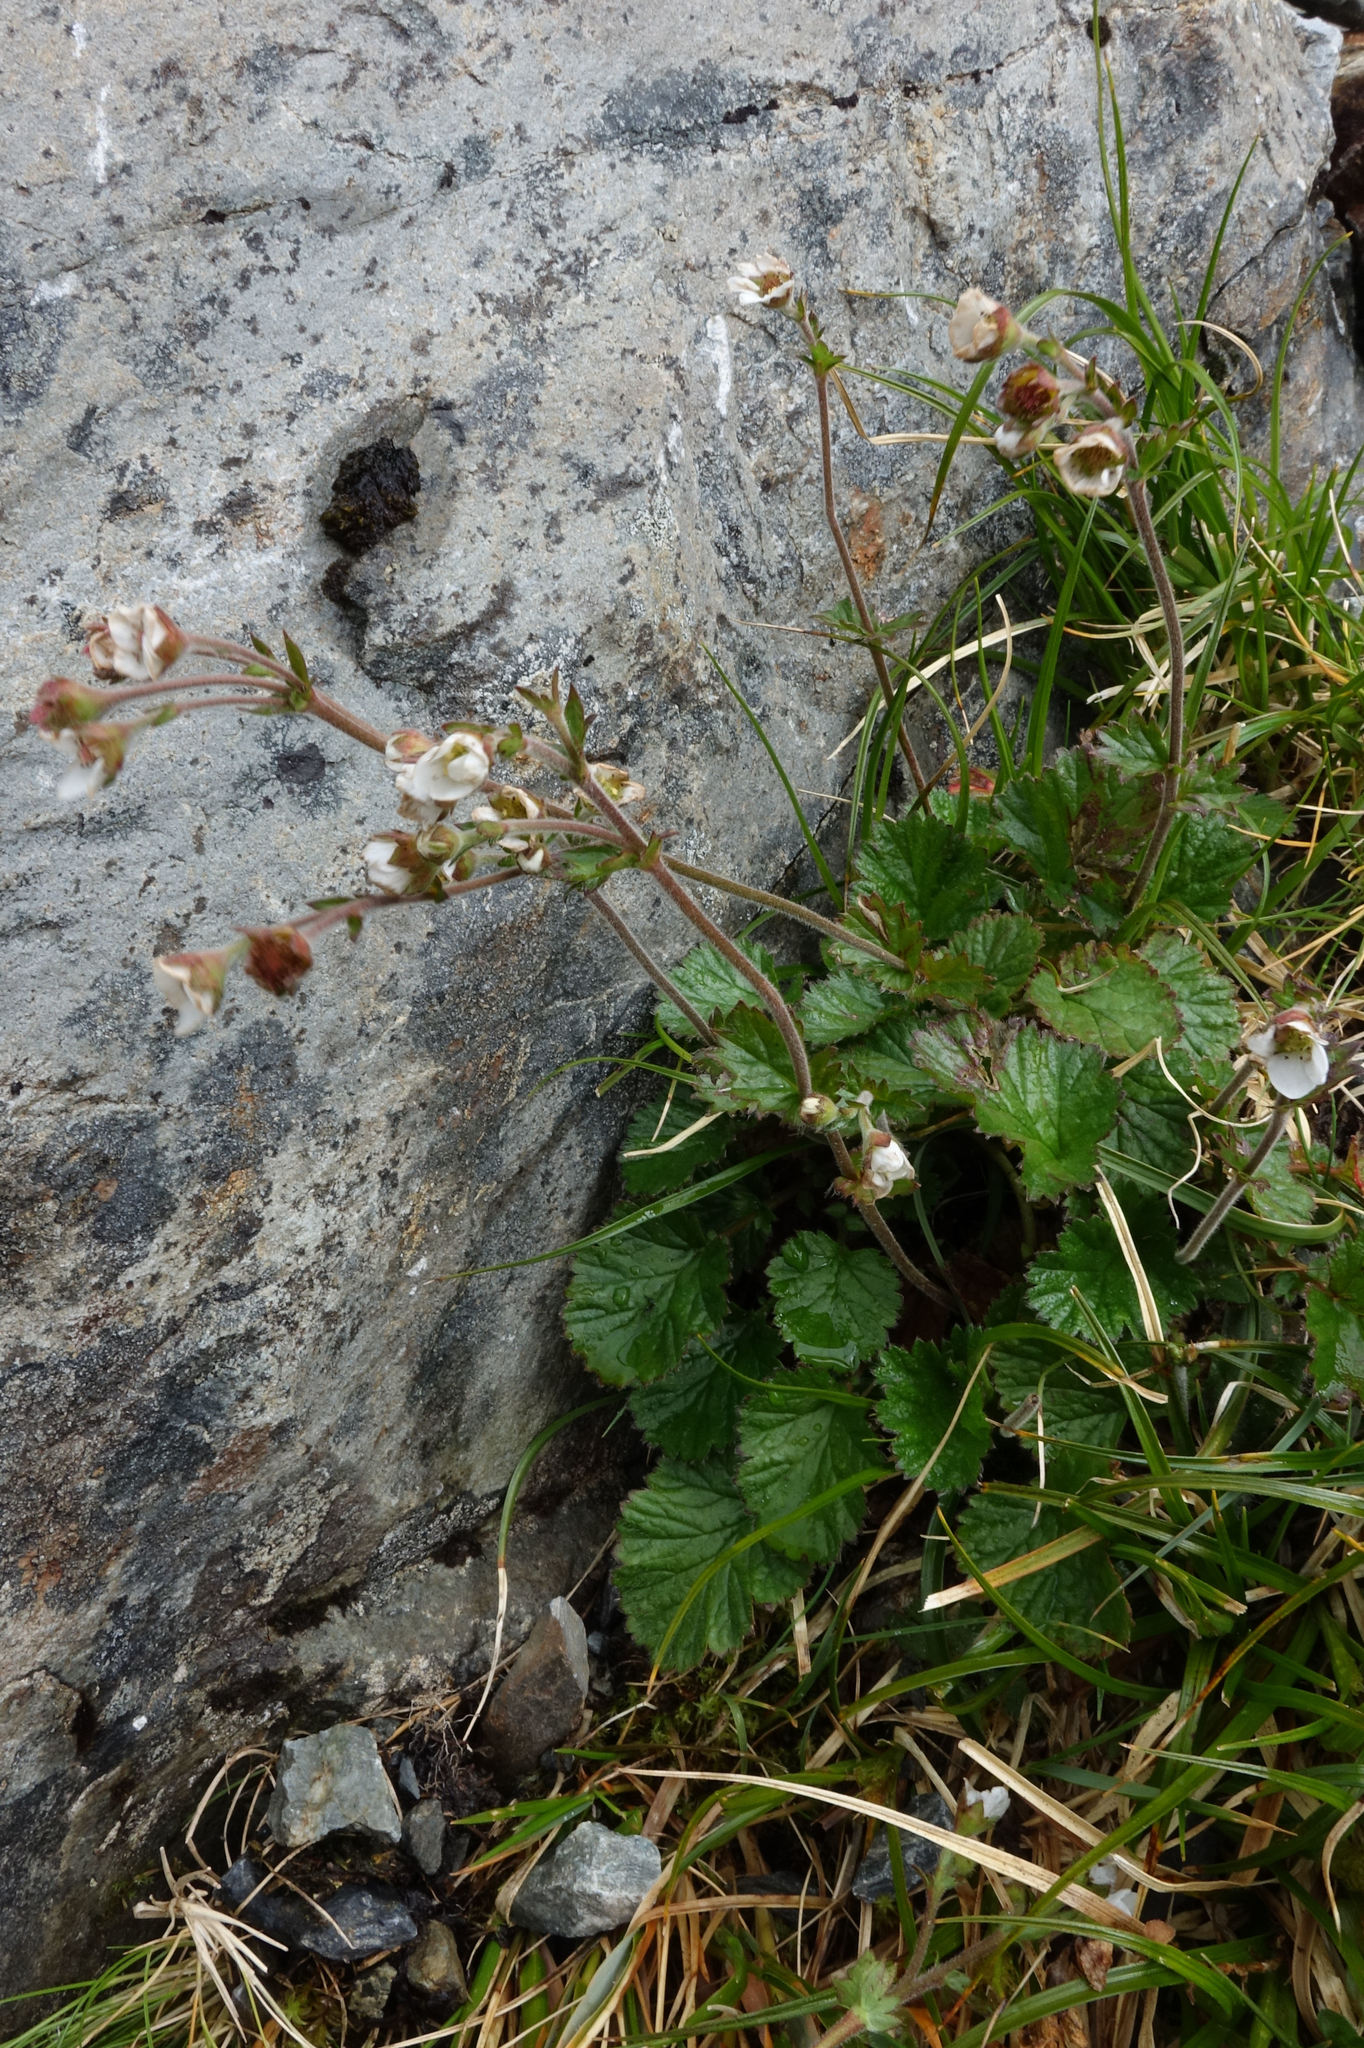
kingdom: Plantae
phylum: Tracheophyta
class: Magnoliopsida
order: Rosales
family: Rosaceae
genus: Geum
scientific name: Geum cockaynei
